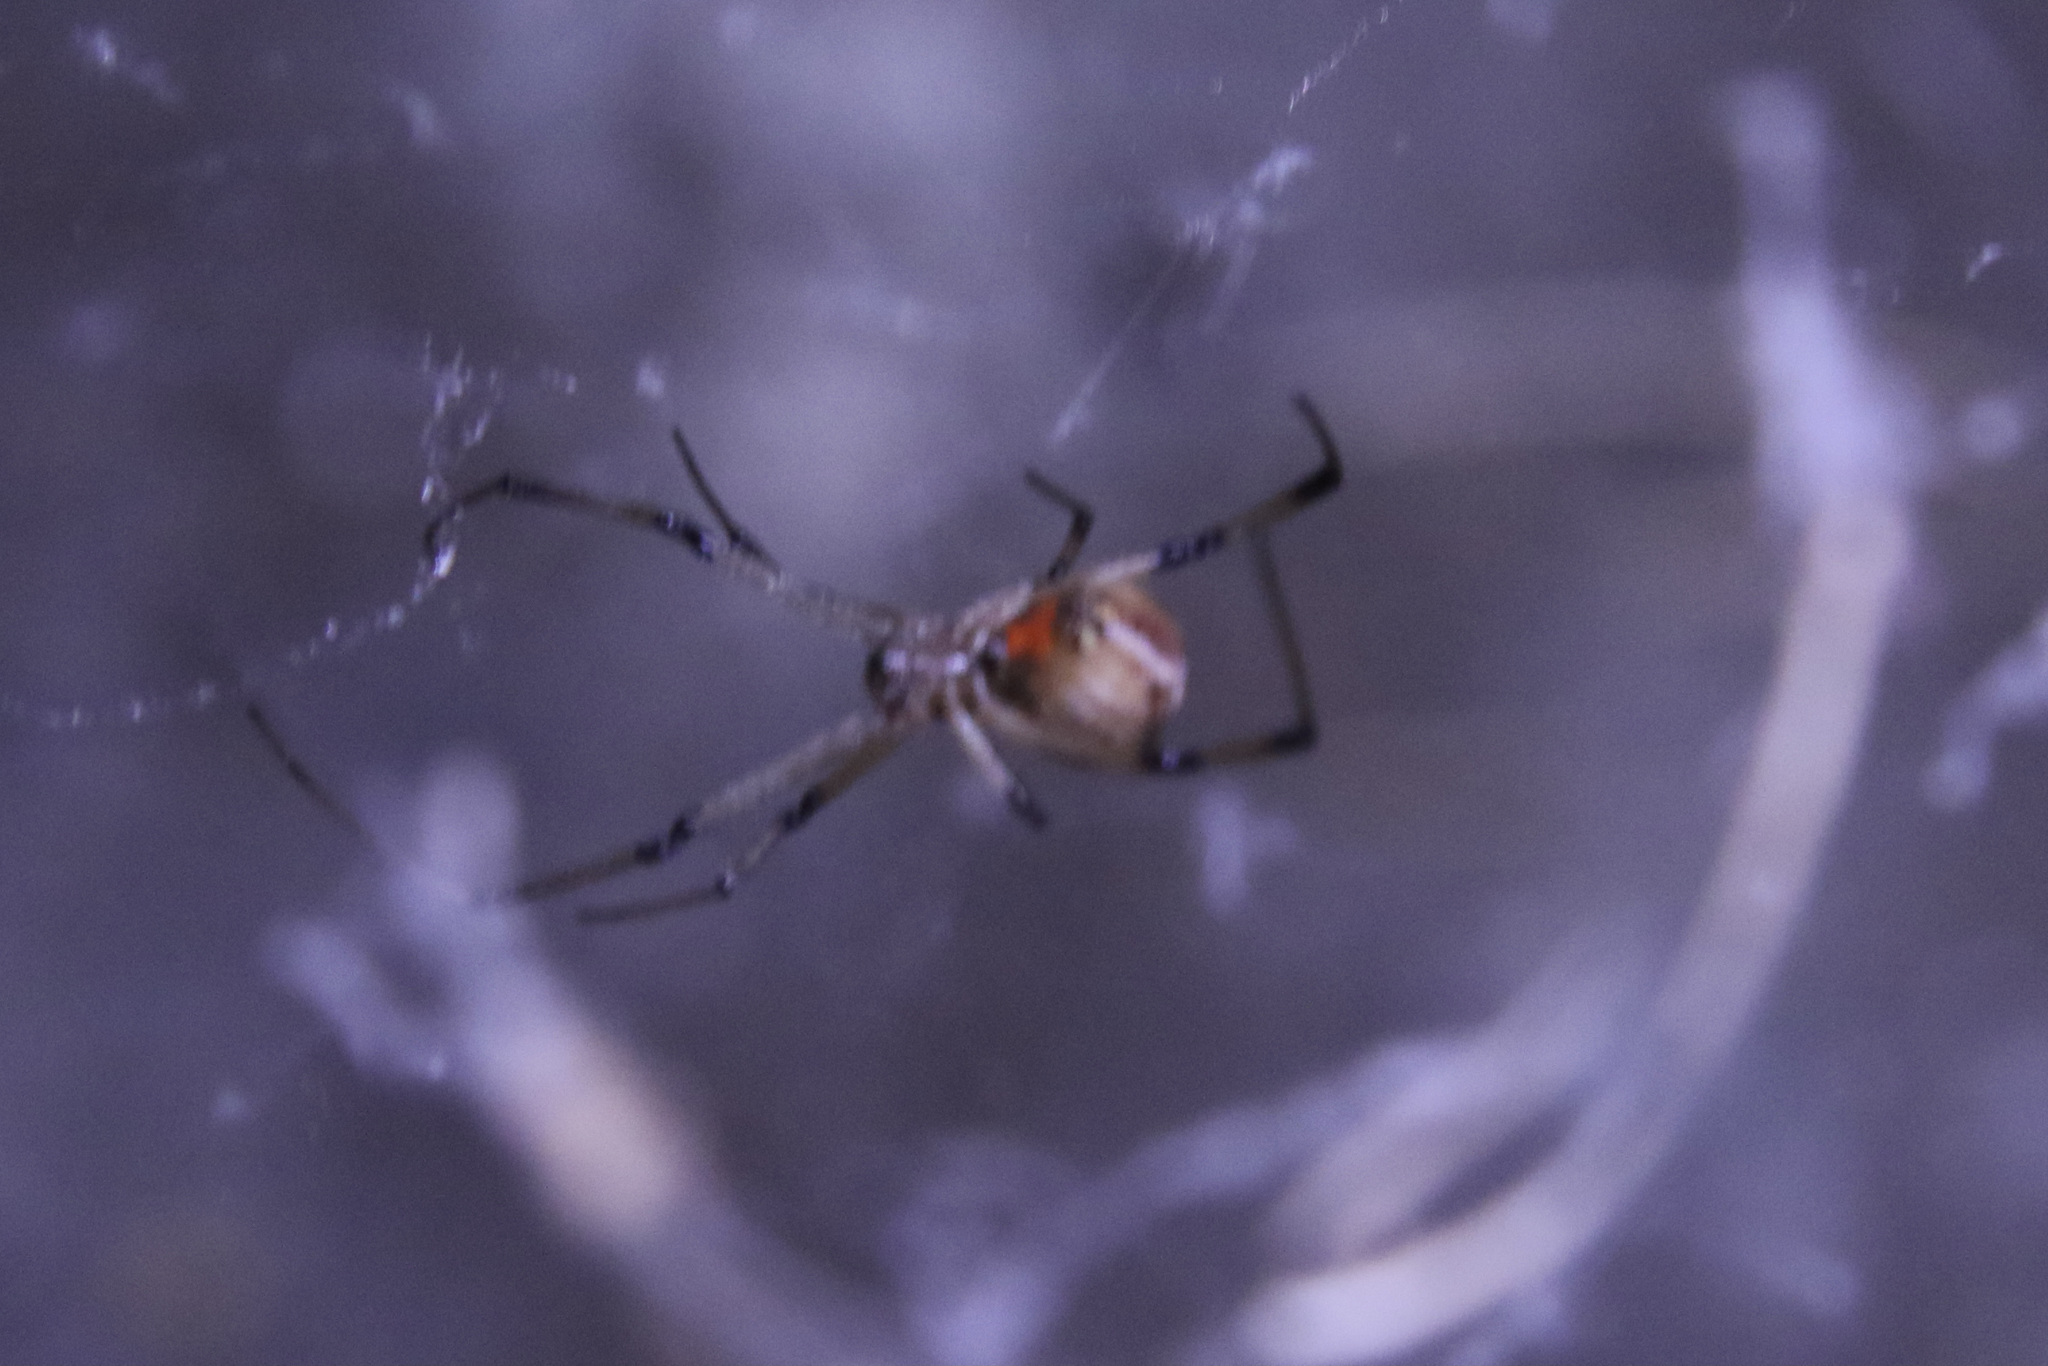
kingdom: Animalia
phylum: Arthropoda
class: Arachnida
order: Araneae
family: Theridiidae
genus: Latrodectus
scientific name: Latrodectus geometricus
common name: Brown widow spider
